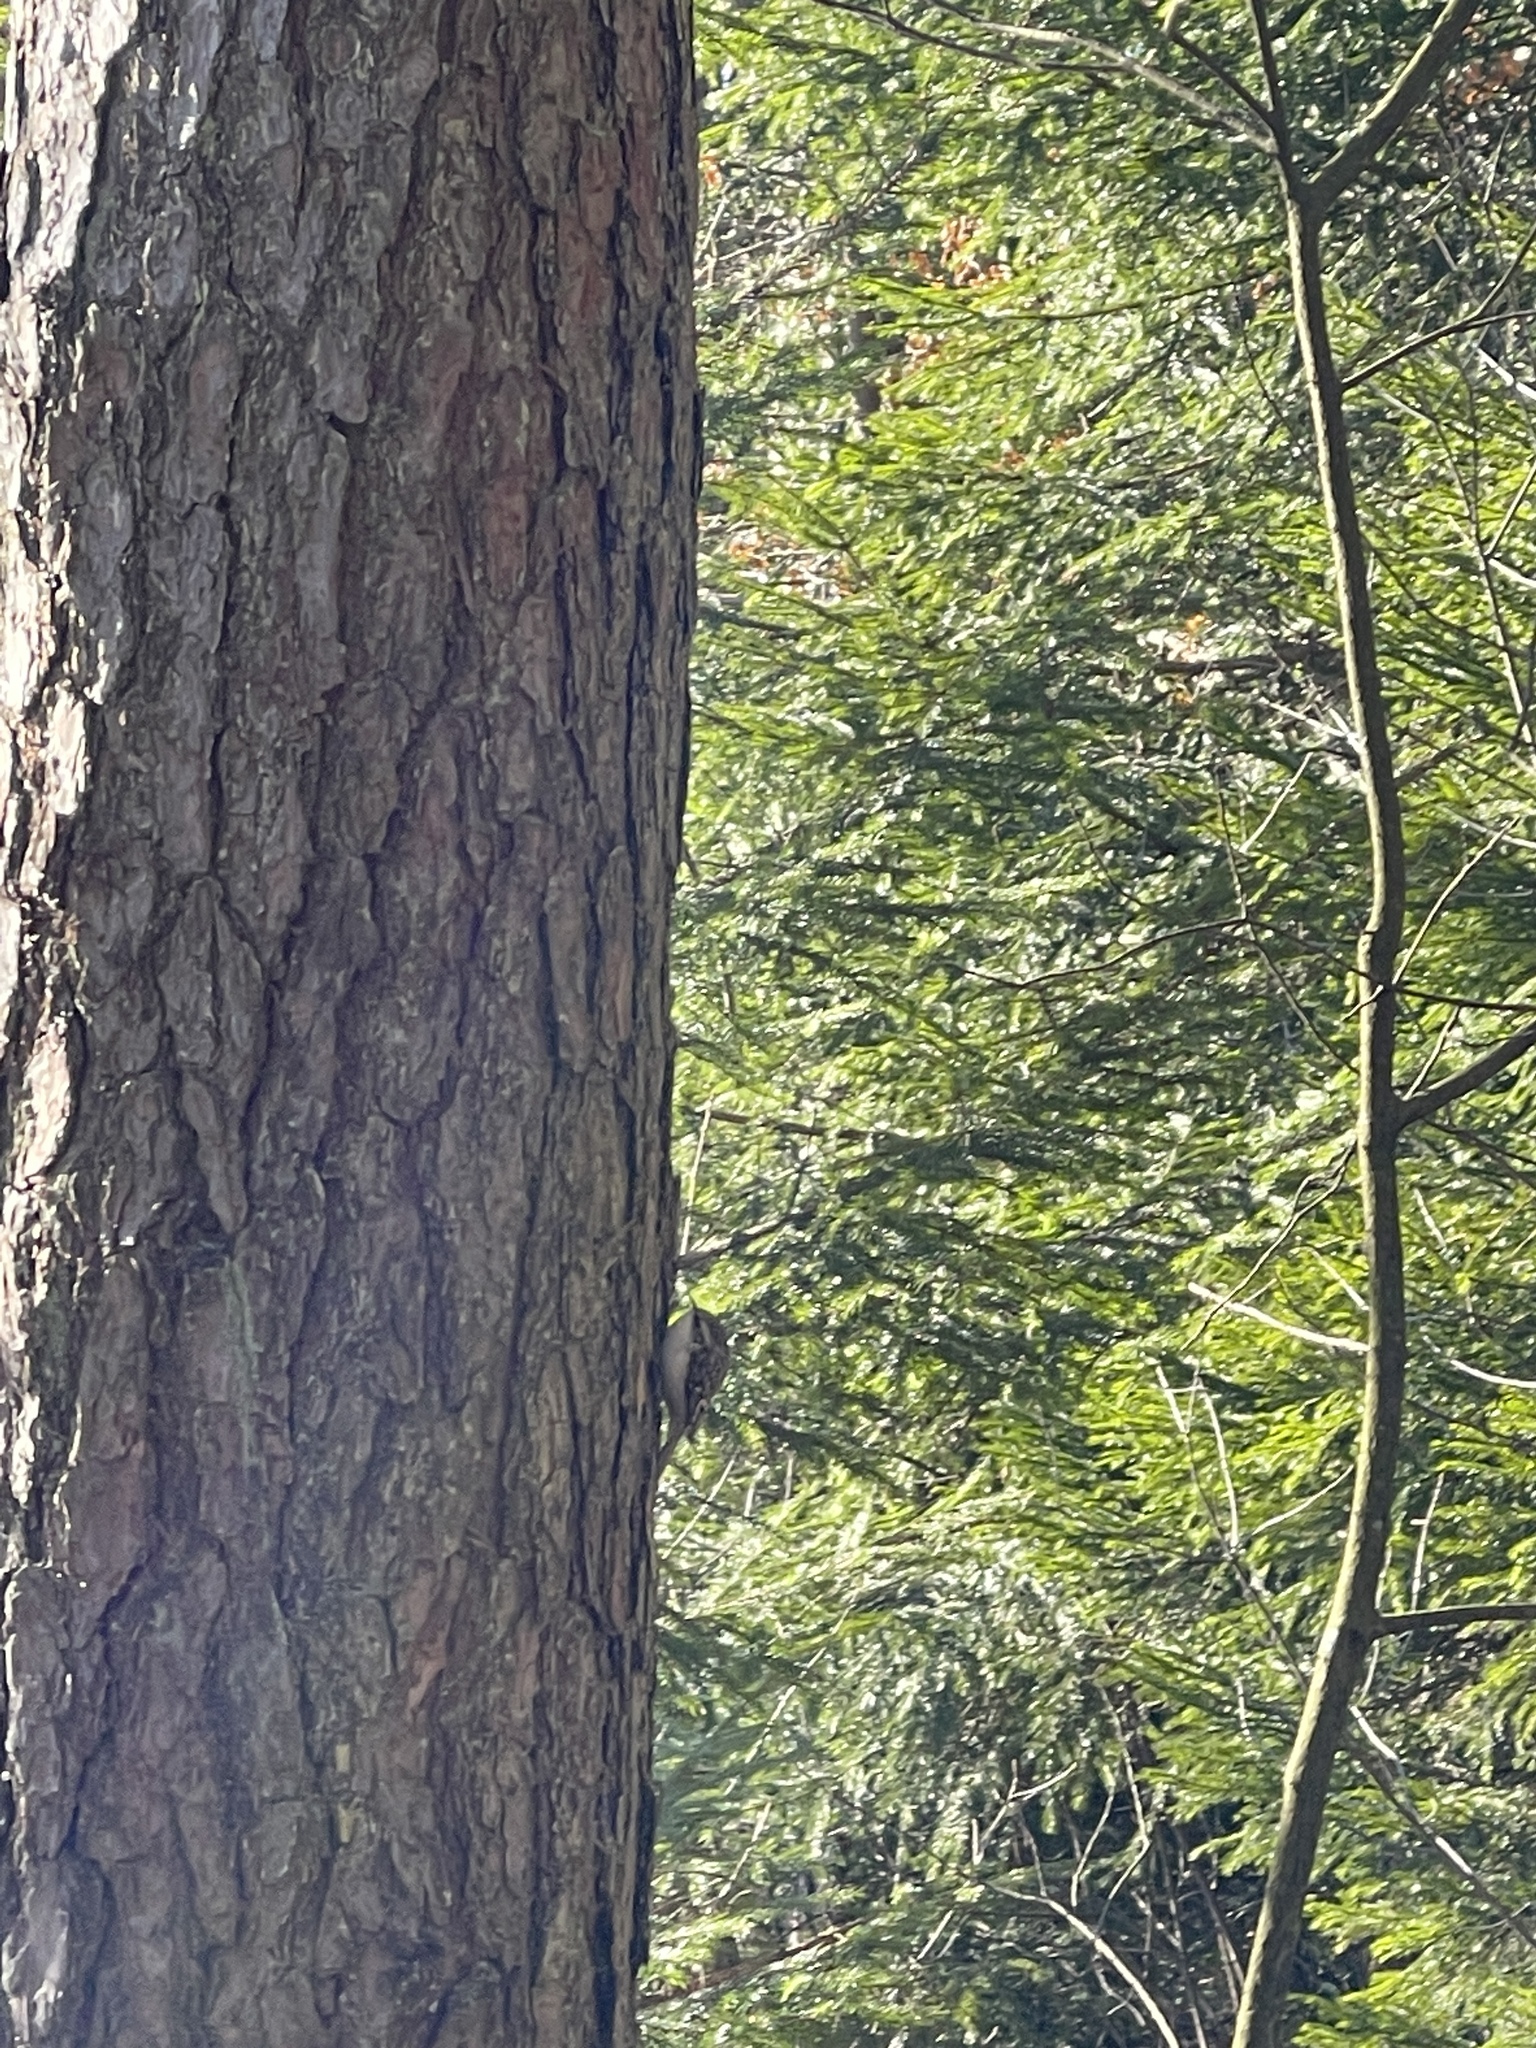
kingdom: Animalia
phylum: Chordata
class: Aves
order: Passeriformes
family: Certhiidae
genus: Certhia
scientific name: Certhia familiaris
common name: Eurasian treecreeper
